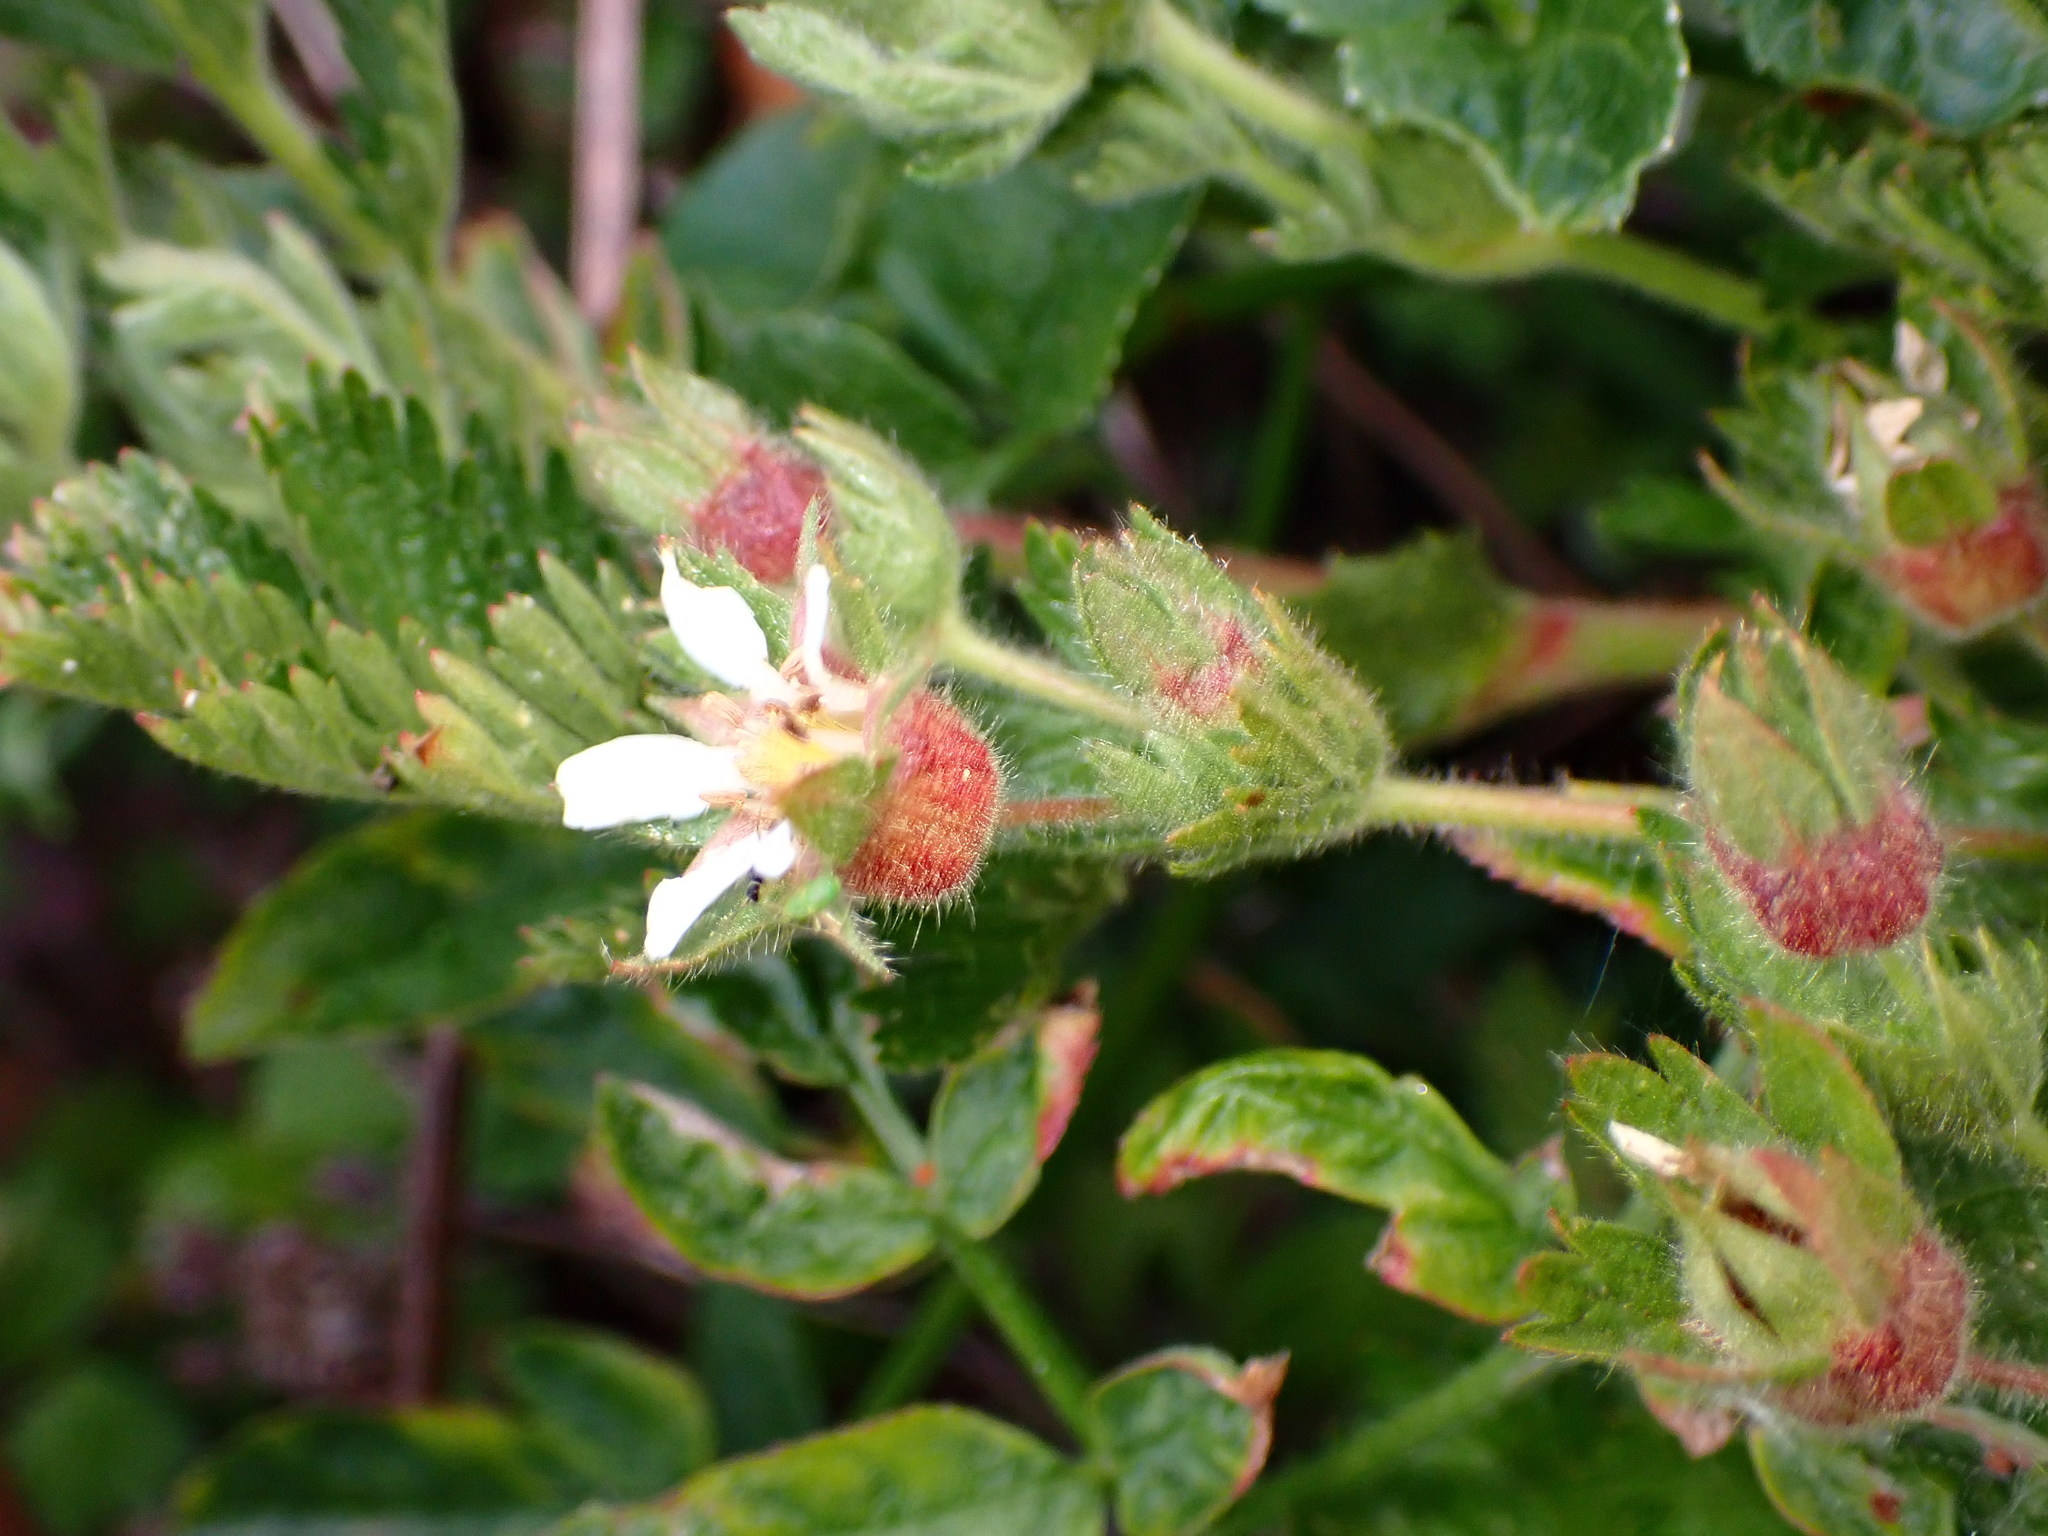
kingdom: Plantae
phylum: Tracheophyta
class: Magnoliopsida
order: Rosales
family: Rosaceae
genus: Potentilla
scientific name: Potentilla californica
